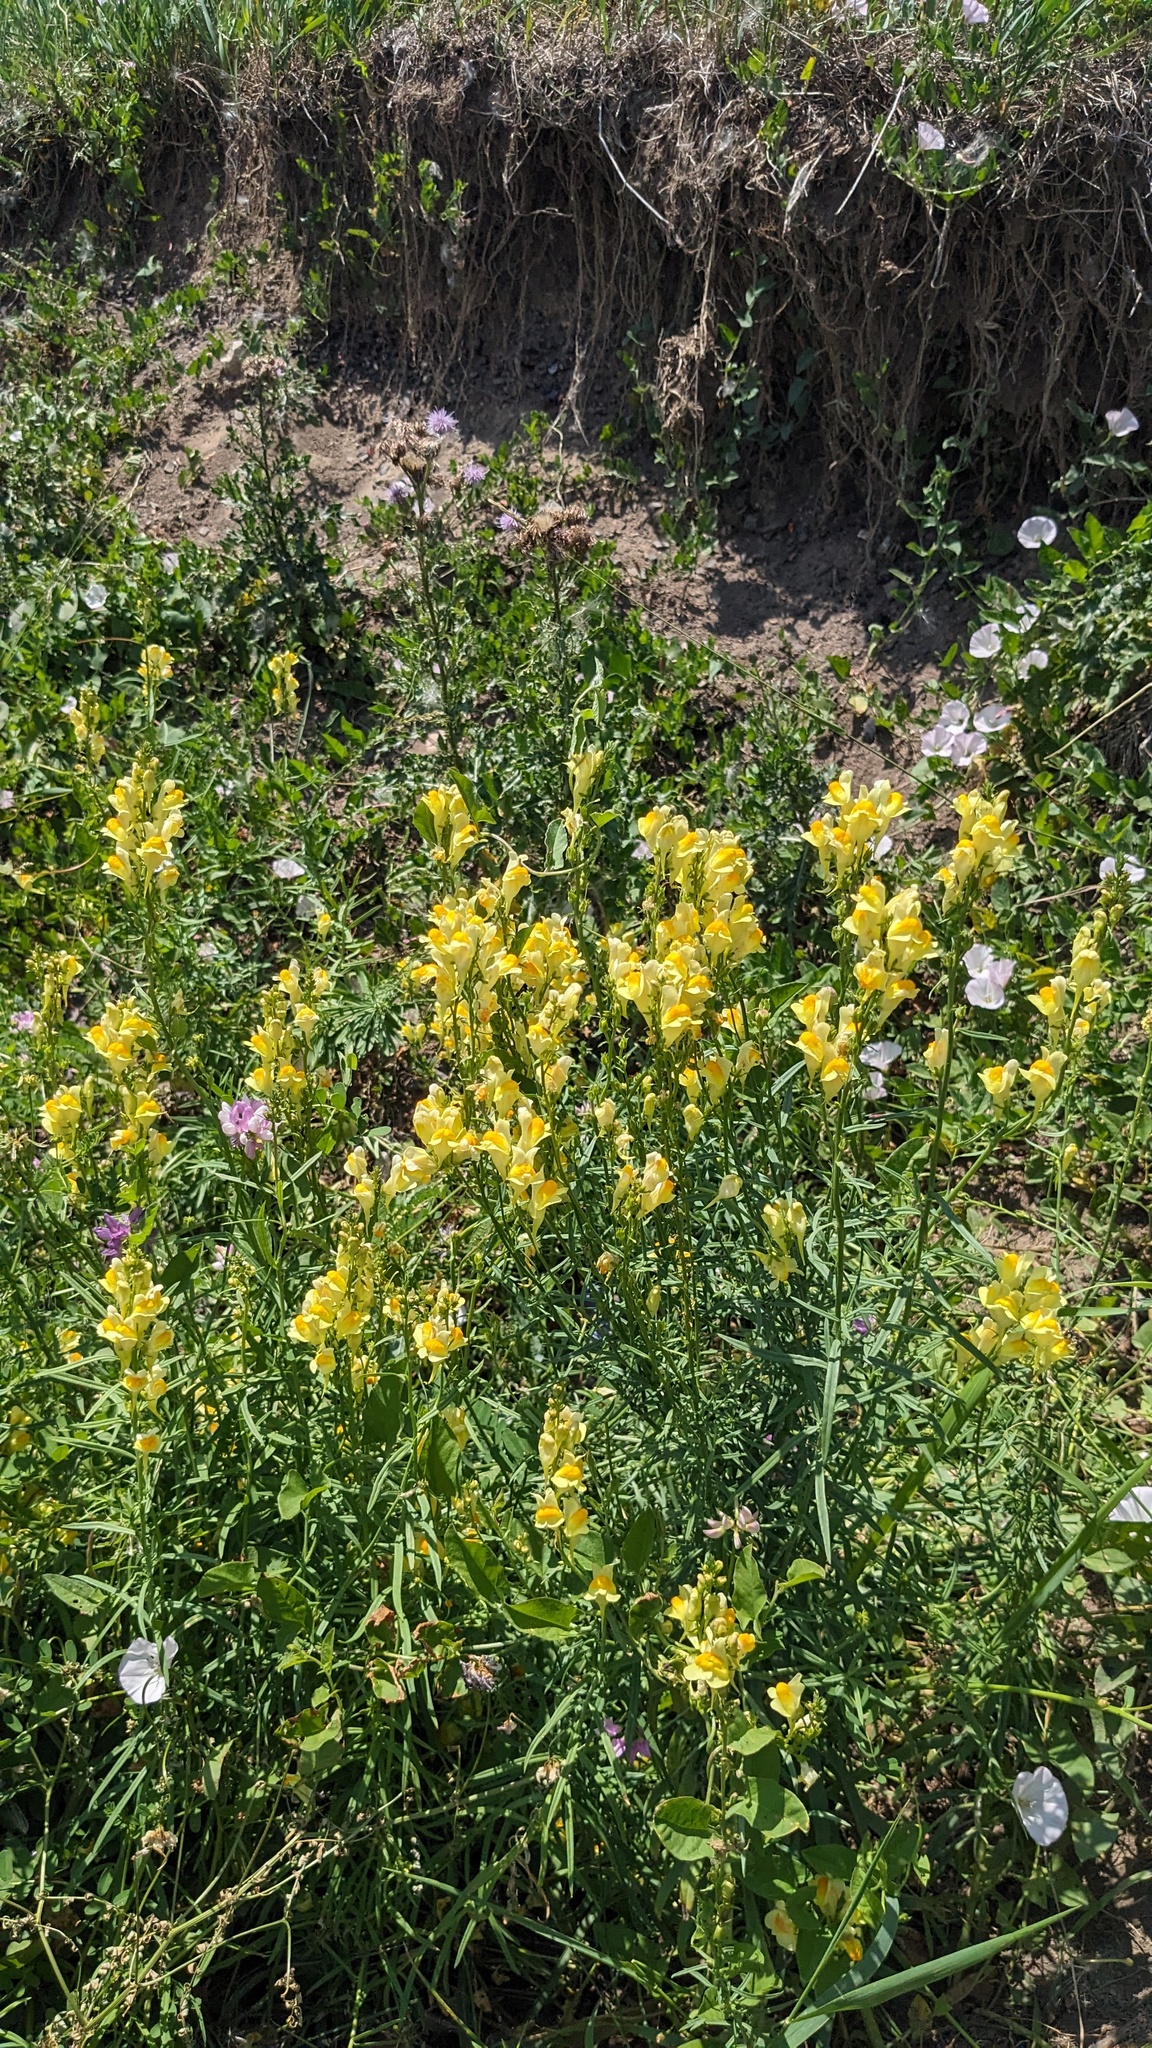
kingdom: Plantae
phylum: Tracheophyta
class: Magnoliopsida
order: Lamiales
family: Plantaginaceae
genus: Linaria
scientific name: Linaria vulgaris
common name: Butter and eggs
